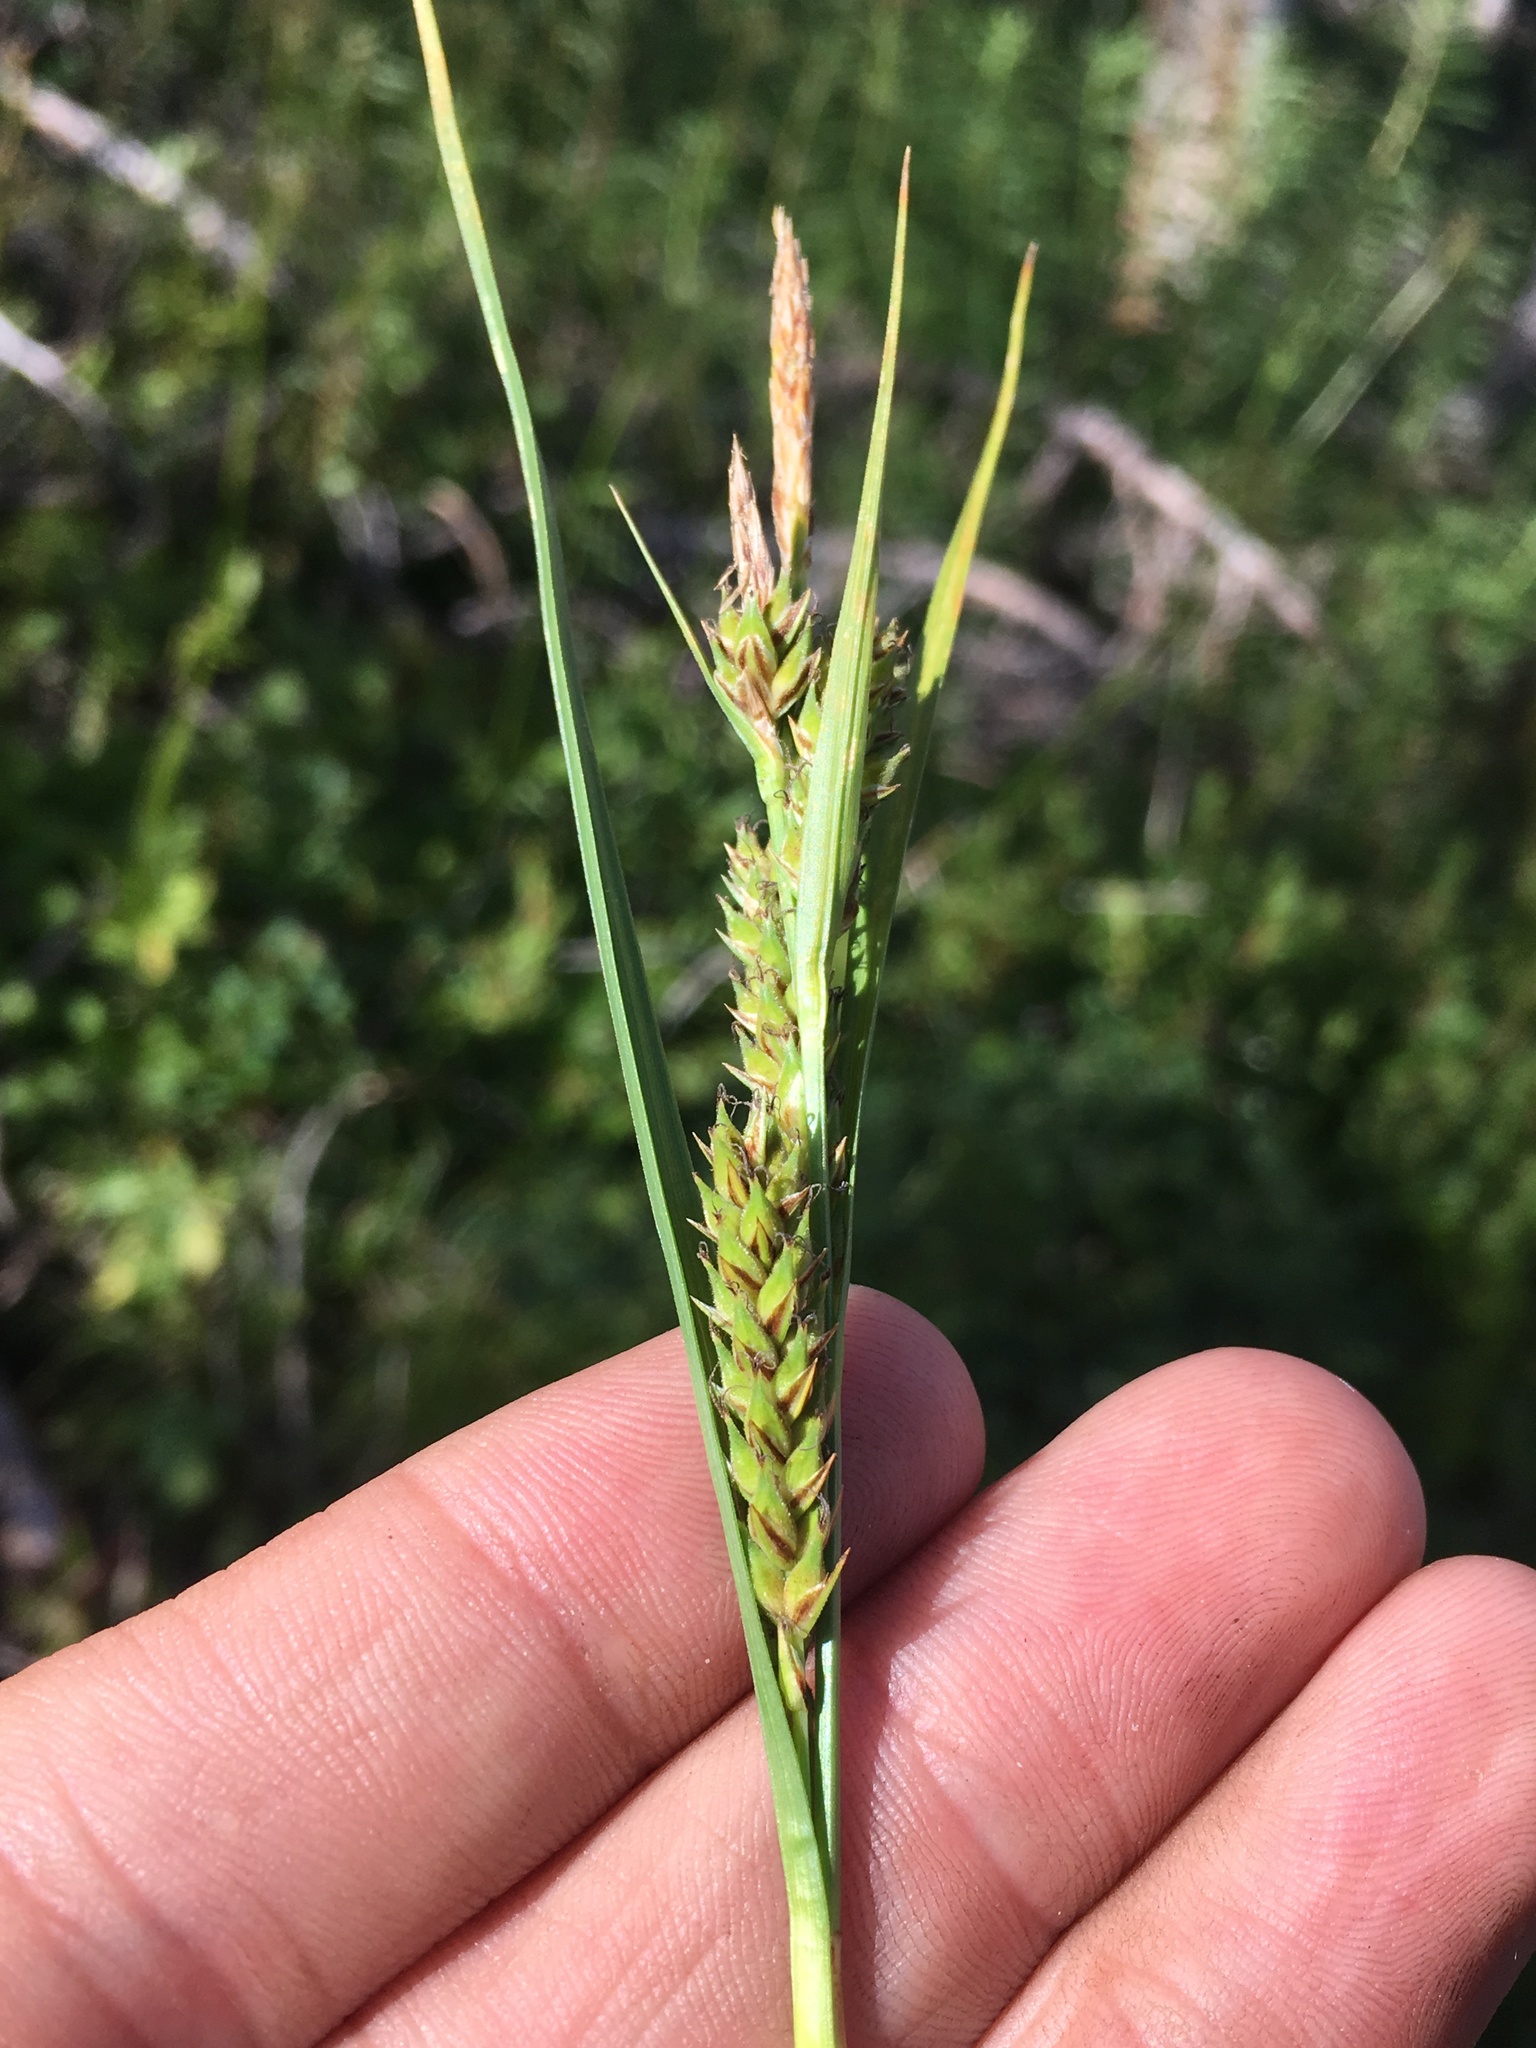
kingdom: Plantae
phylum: Tracheophyta
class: Liliopsida
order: Poales
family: Cyperaceae
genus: Carex
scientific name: Carex halliana
